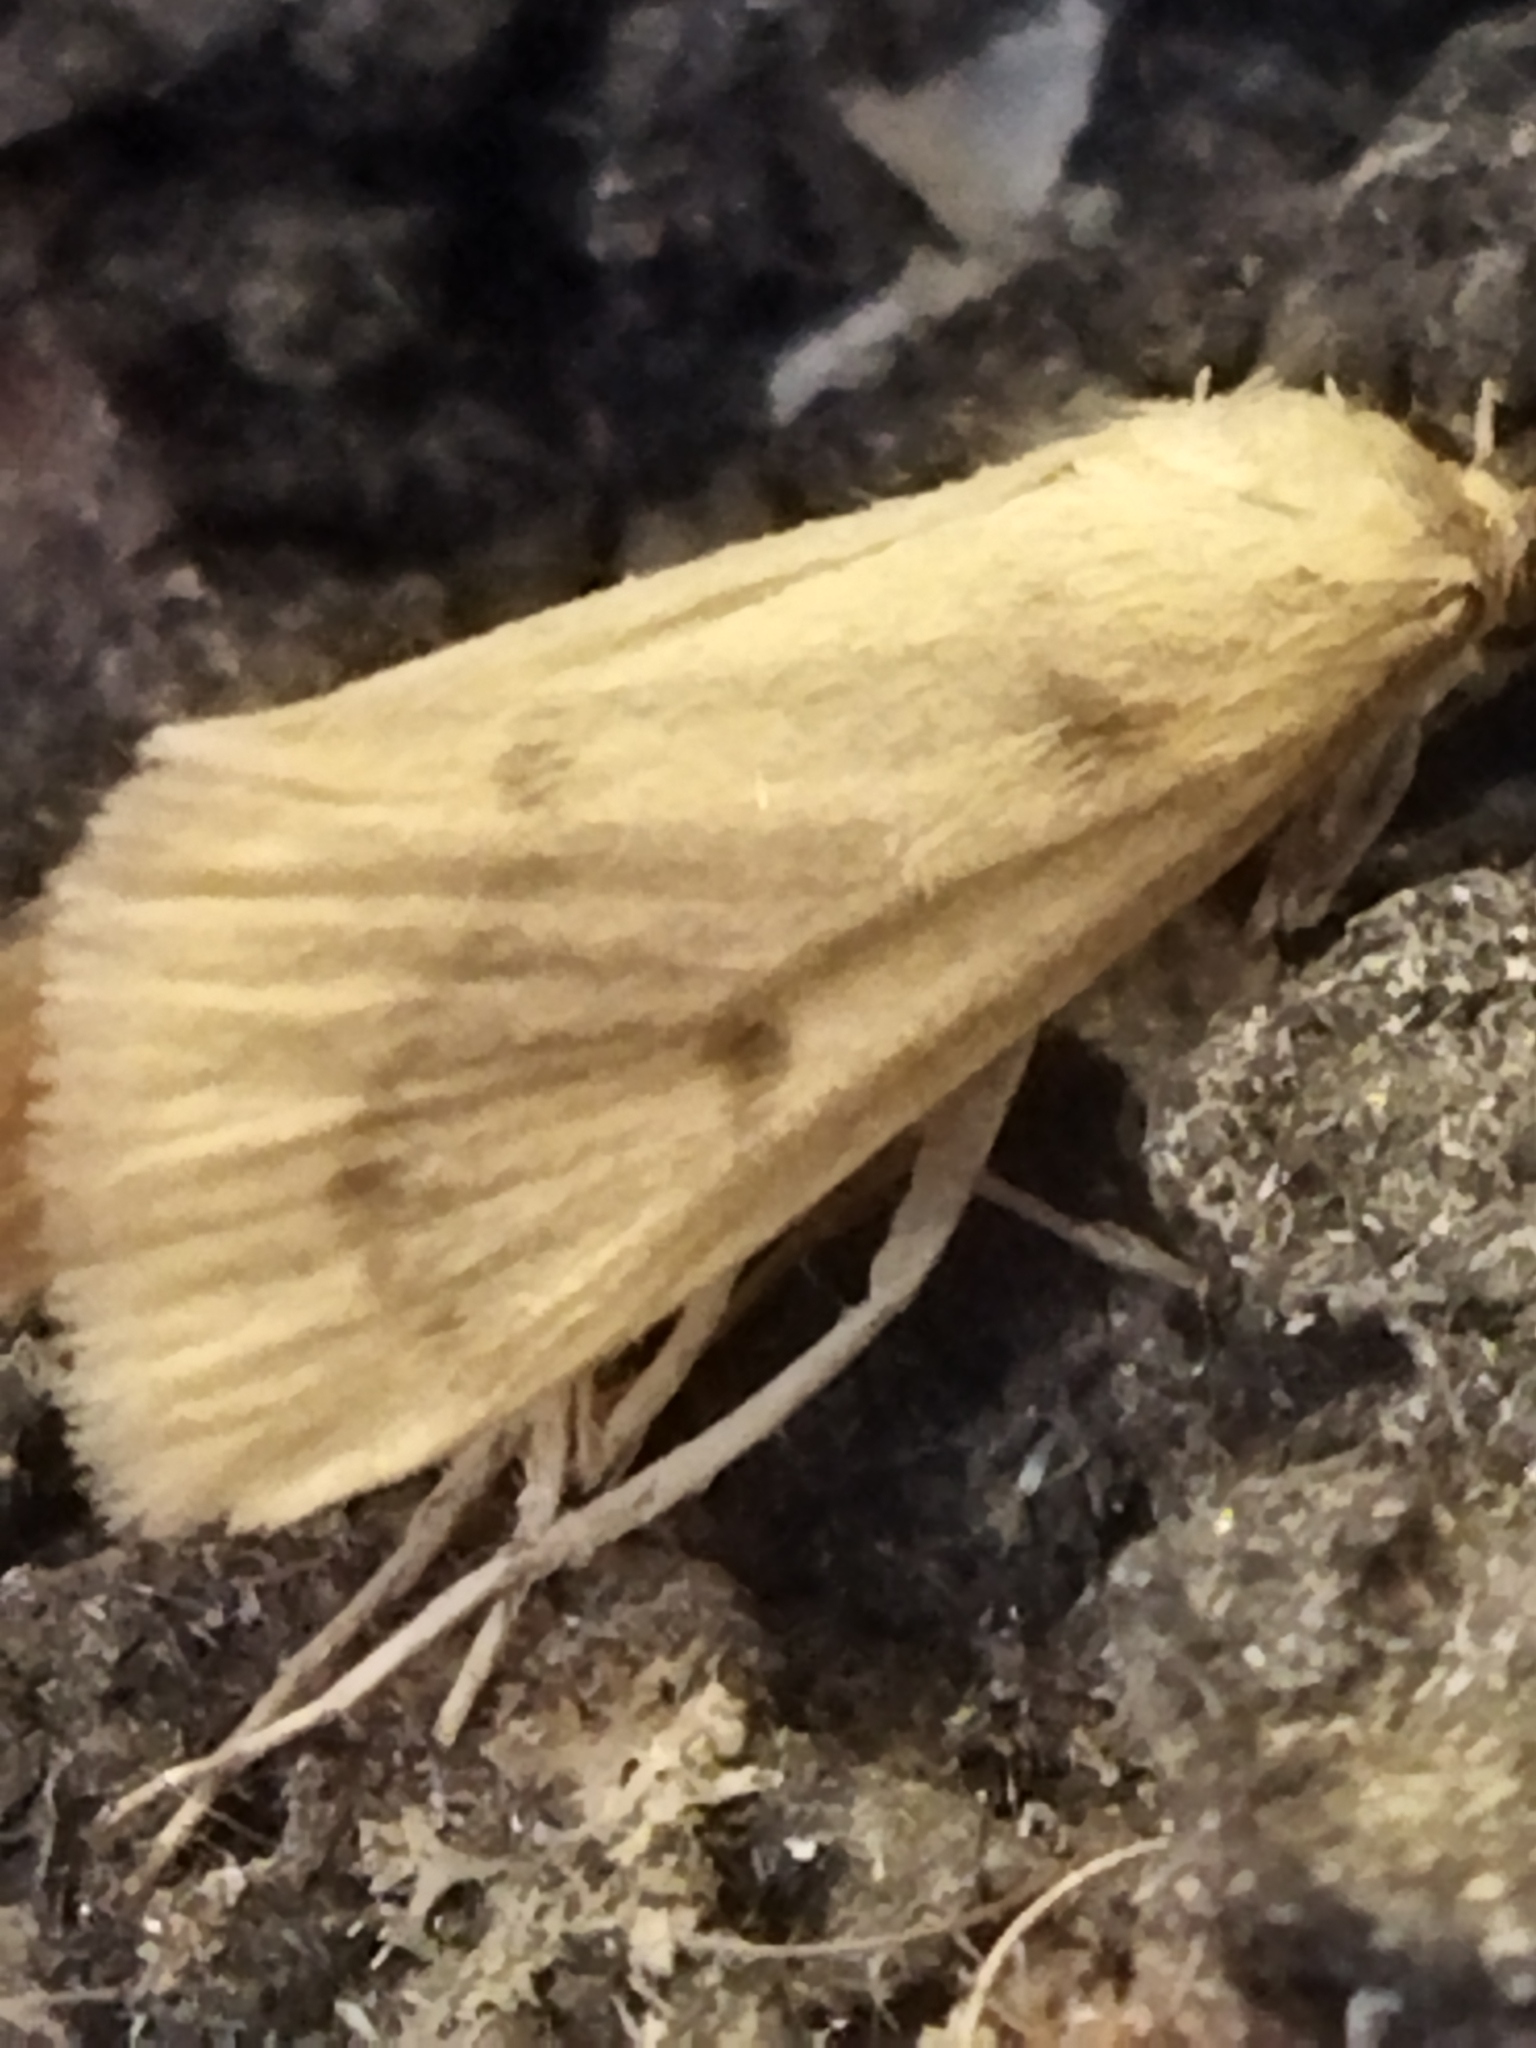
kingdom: Animalia
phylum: Arthropoda
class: Insecta
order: Lepidoptera
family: Crambidae
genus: Achyra
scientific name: Achyra nudalis
